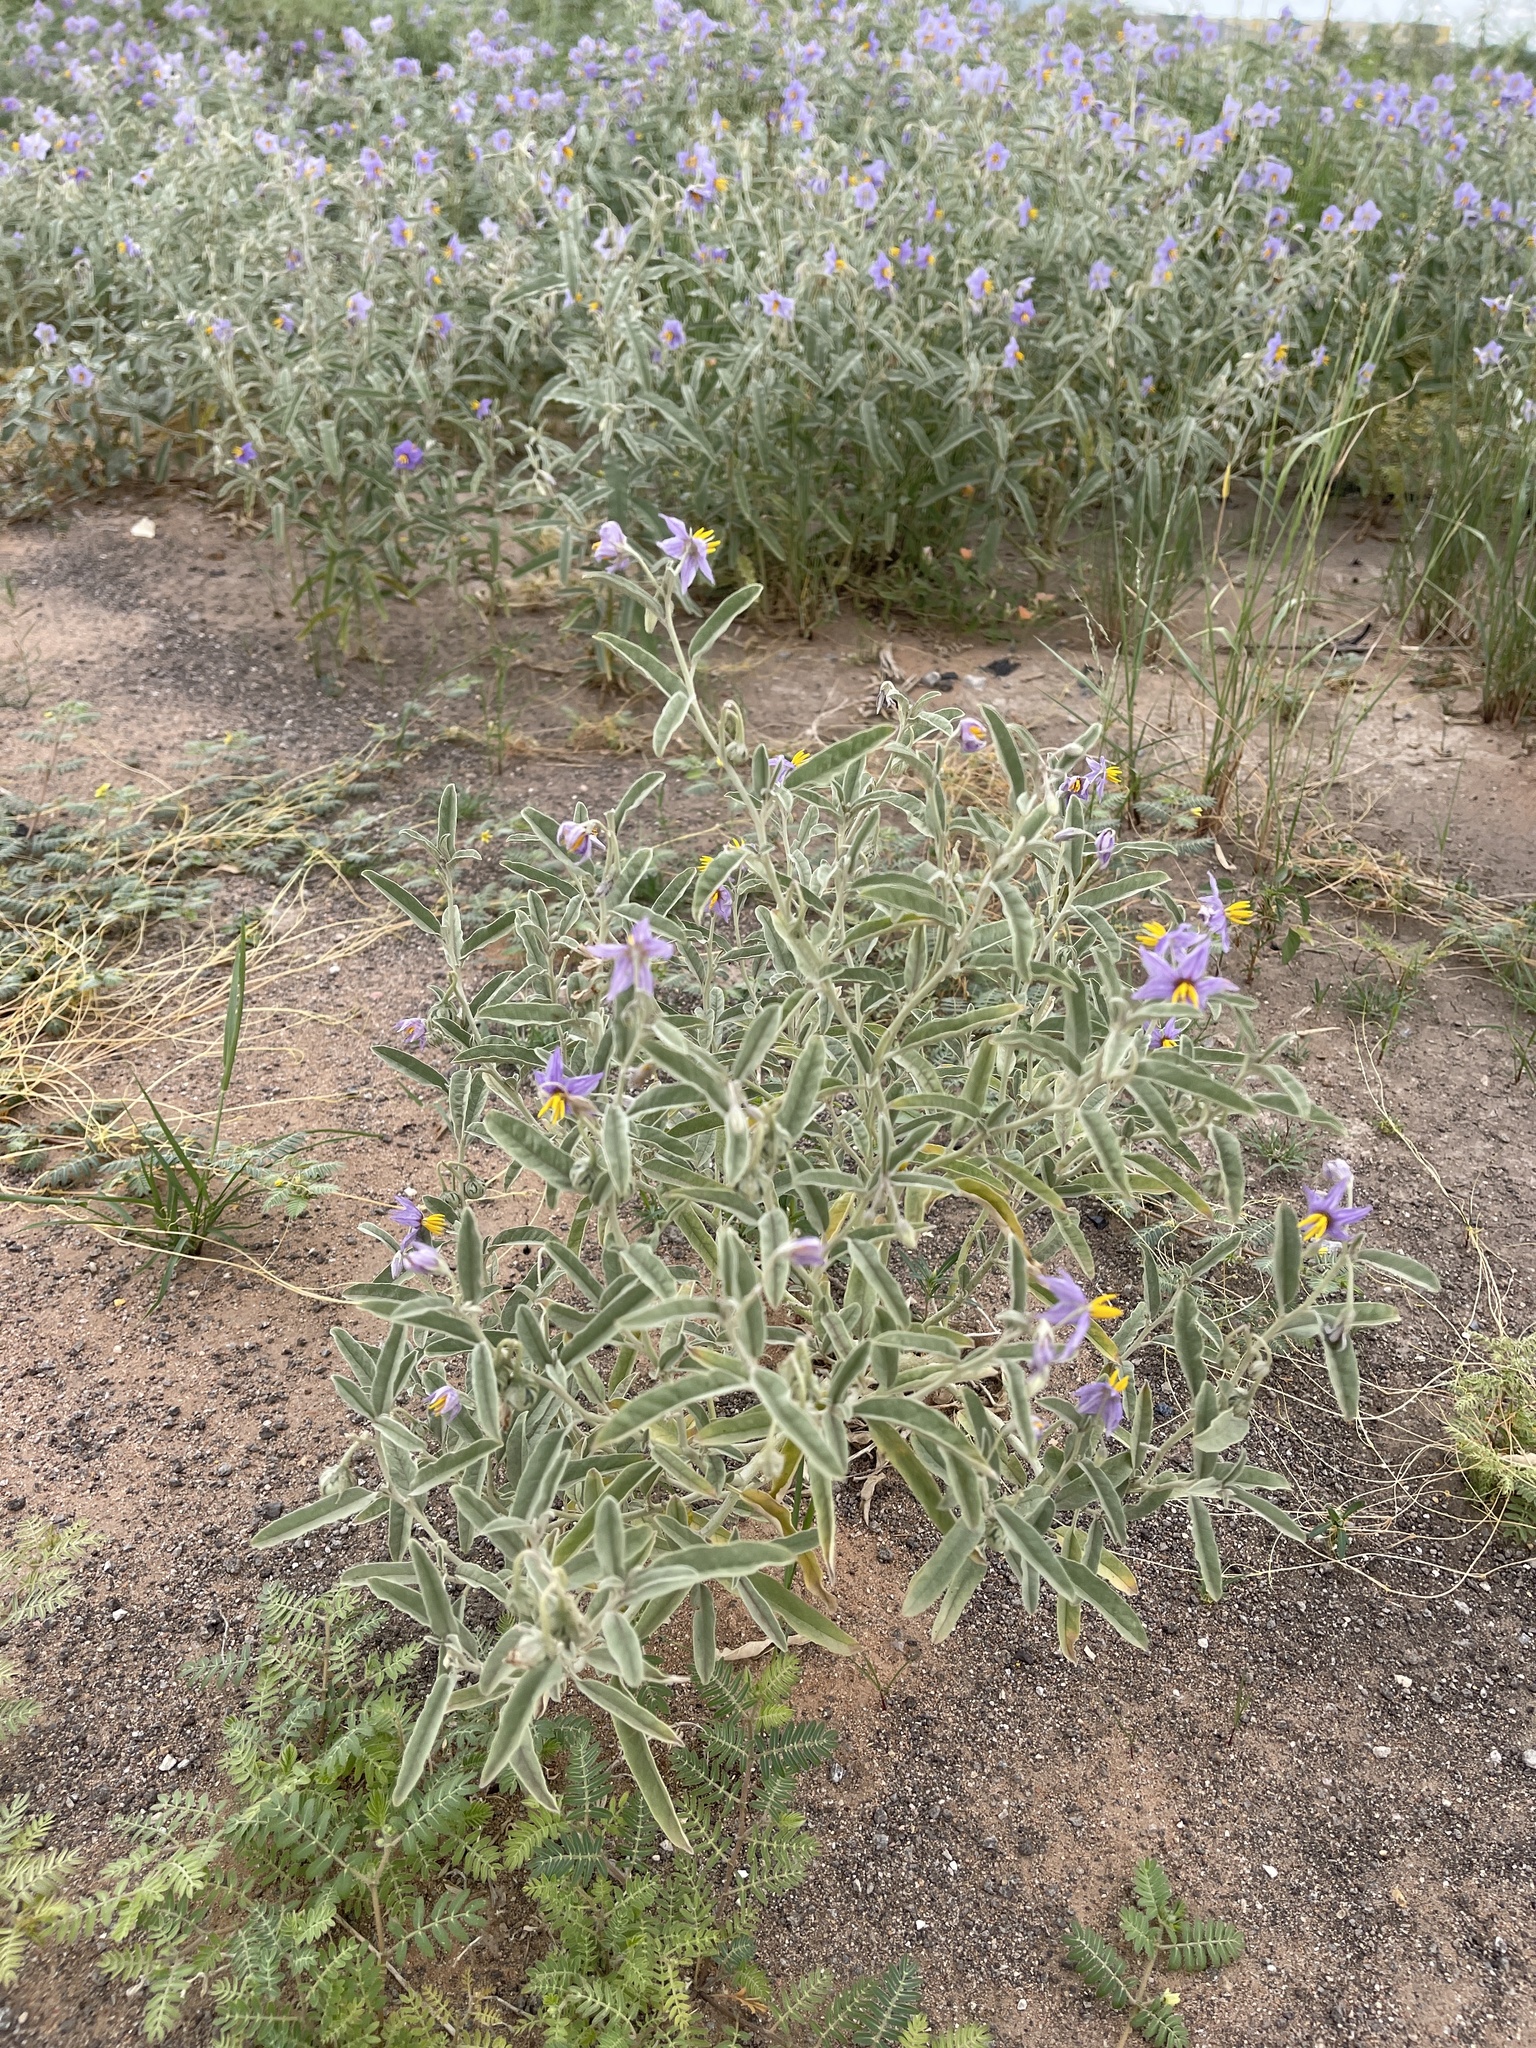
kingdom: Plantae
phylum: Tracheophyta
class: Magnoliopsida
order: Solanales
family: Solanaceae
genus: Solanum
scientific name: Solanum elaeagnifolium
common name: Silverleaf nightshade
